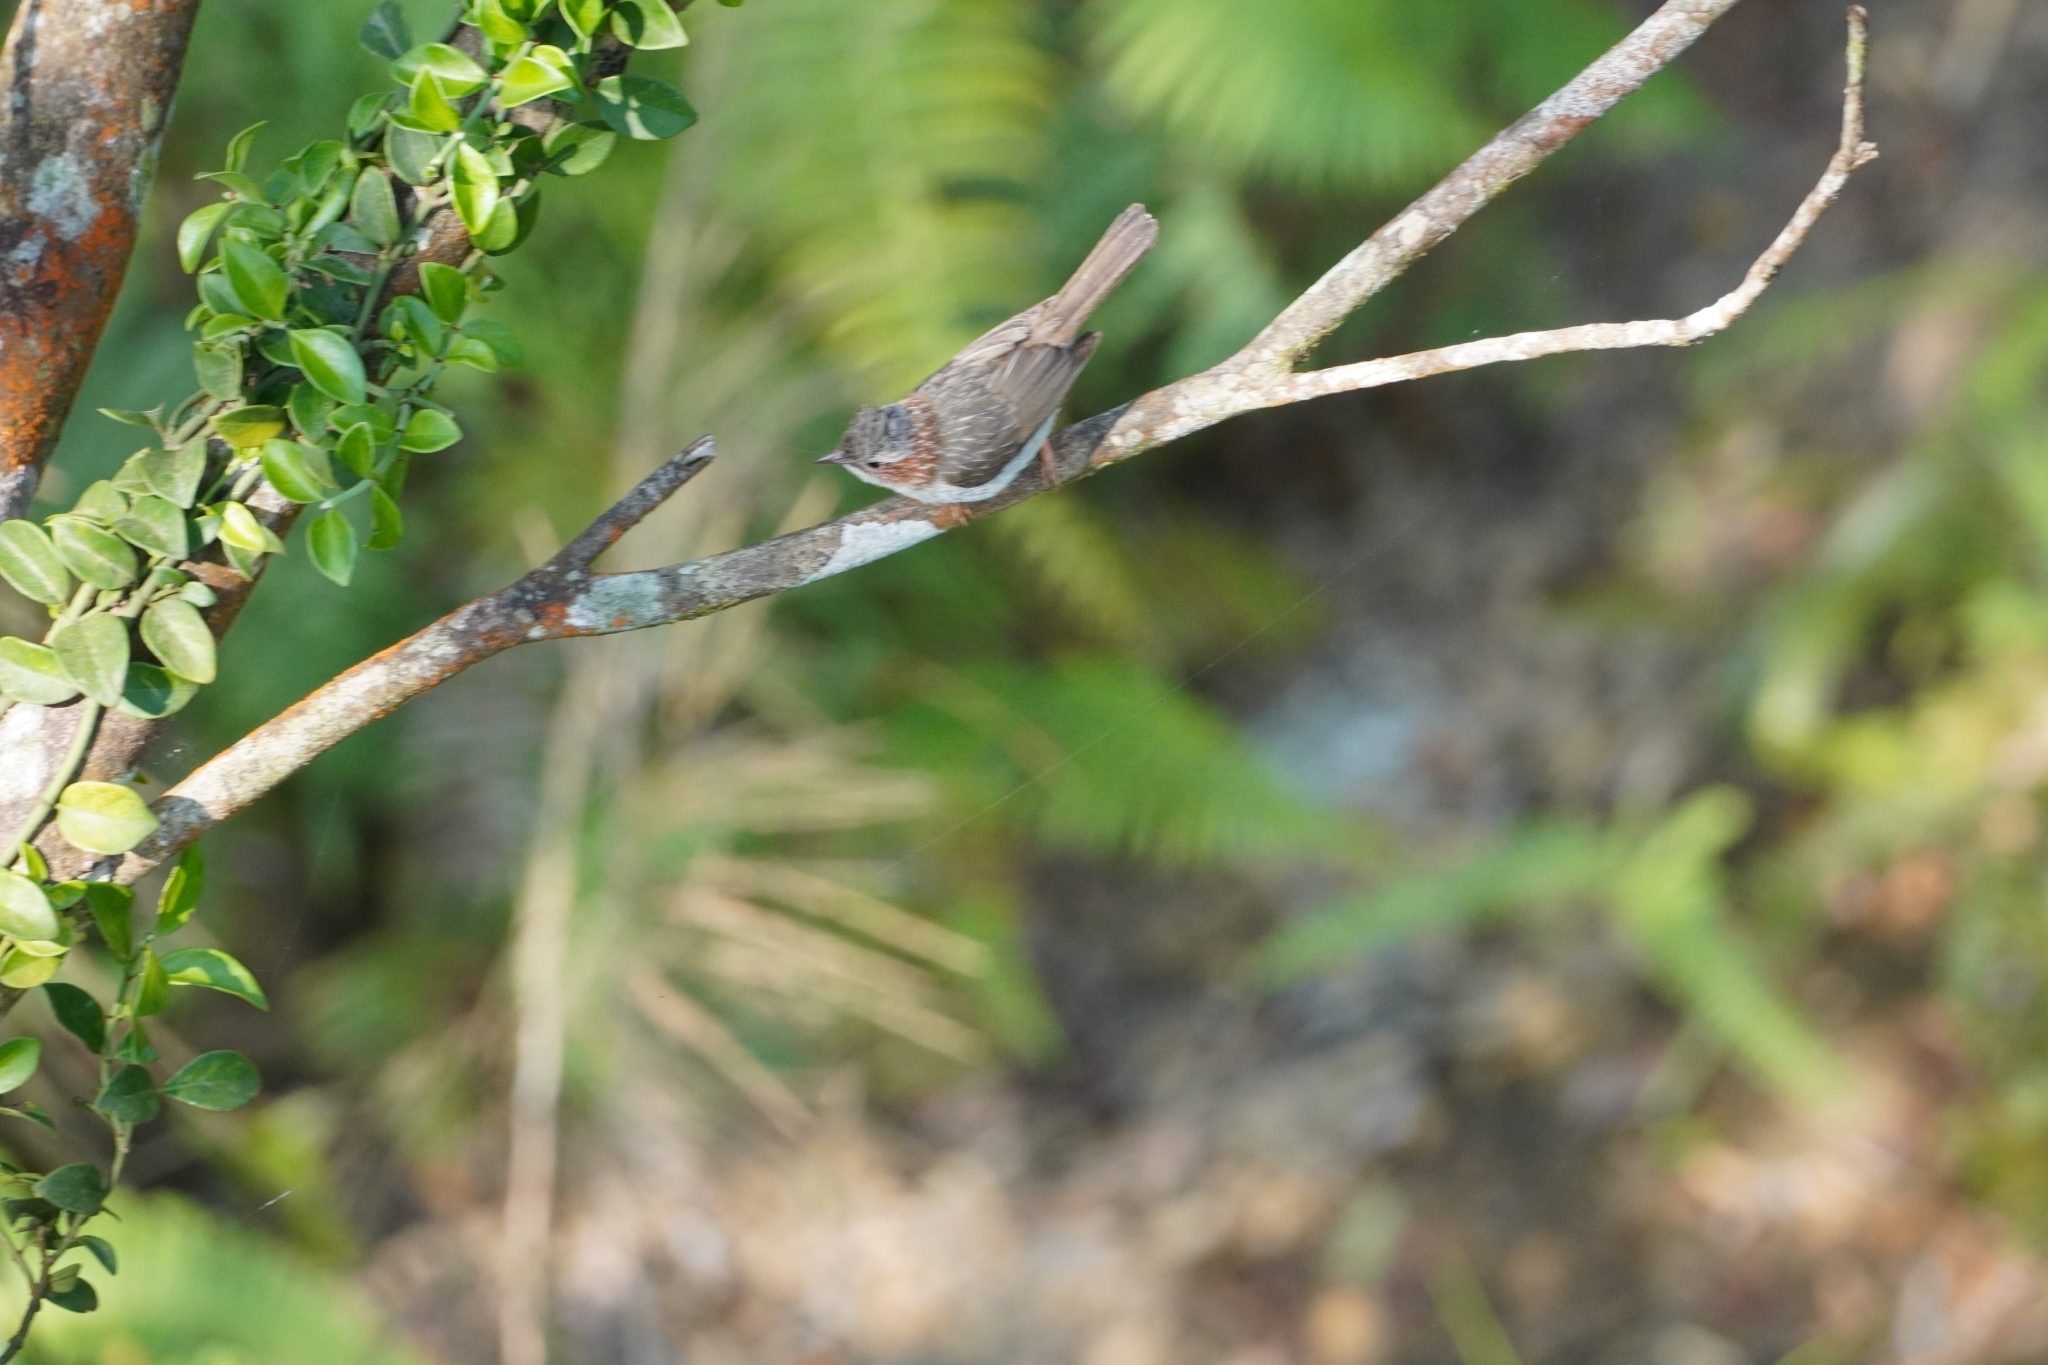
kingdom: Animalia
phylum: Chordata
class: Aves
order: Passeriformes
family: Zosteropidae
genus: Yuhina
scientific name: Yuhina torqueola
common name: Indochinese yuhina
